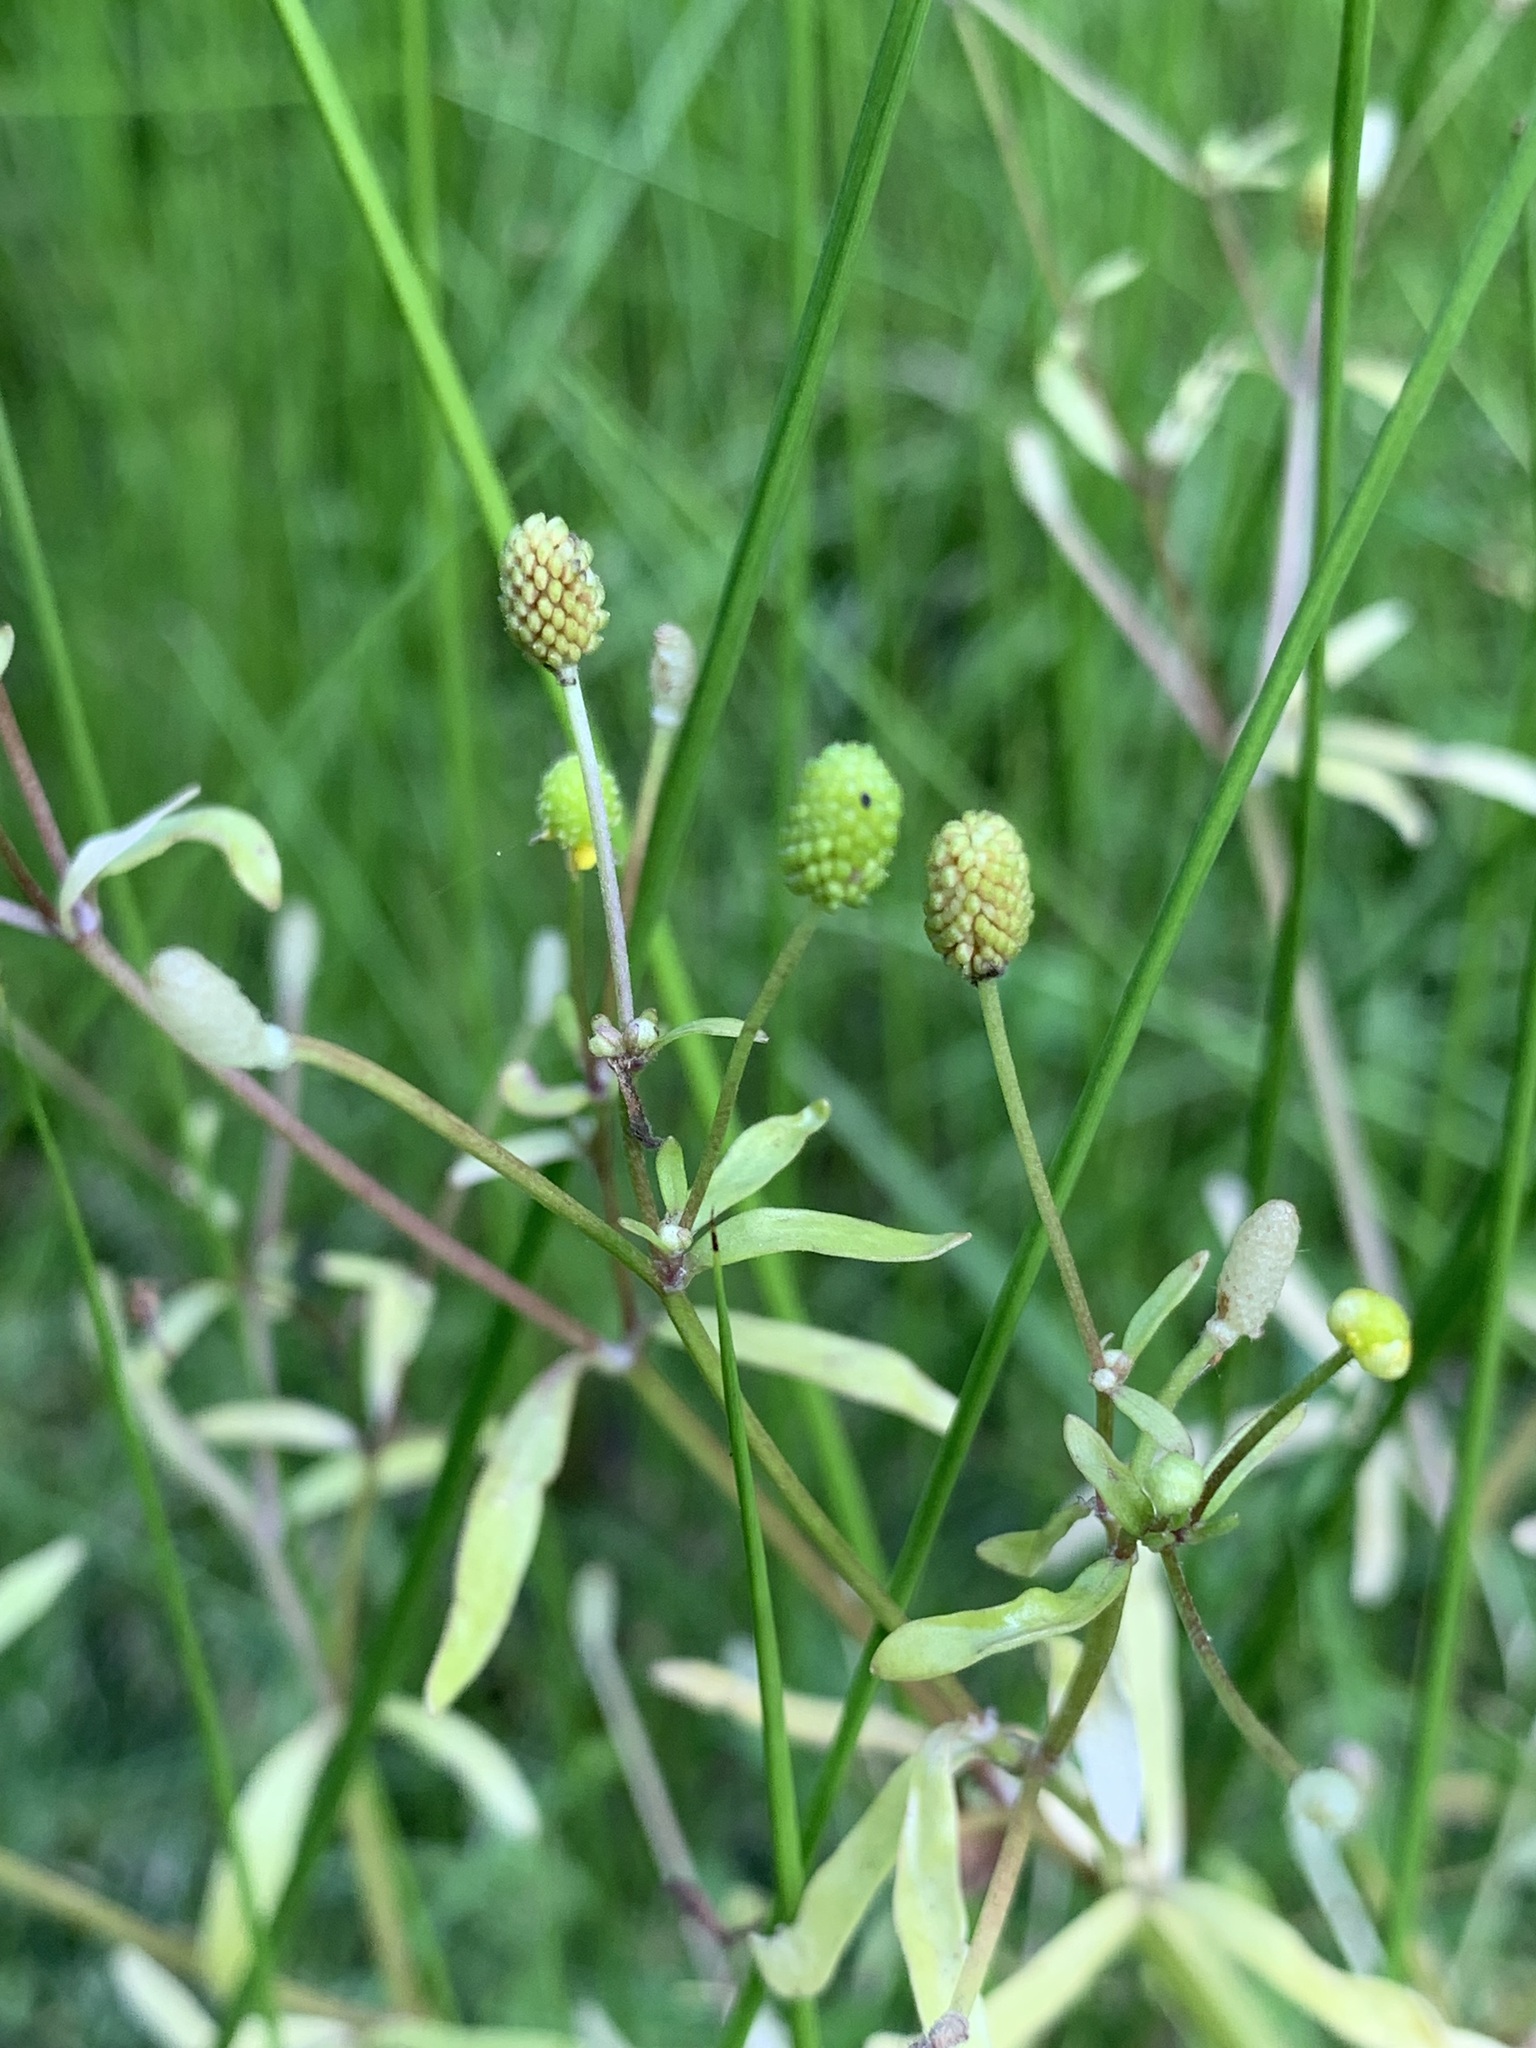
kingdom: Plantae
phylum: Tracheophyta
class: Magnoliopsida
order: Ranunculales
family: Ranunculaceae
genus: Ranunculus
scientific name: Ranunculus sceleratus
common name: Celery-leaved buttercup
